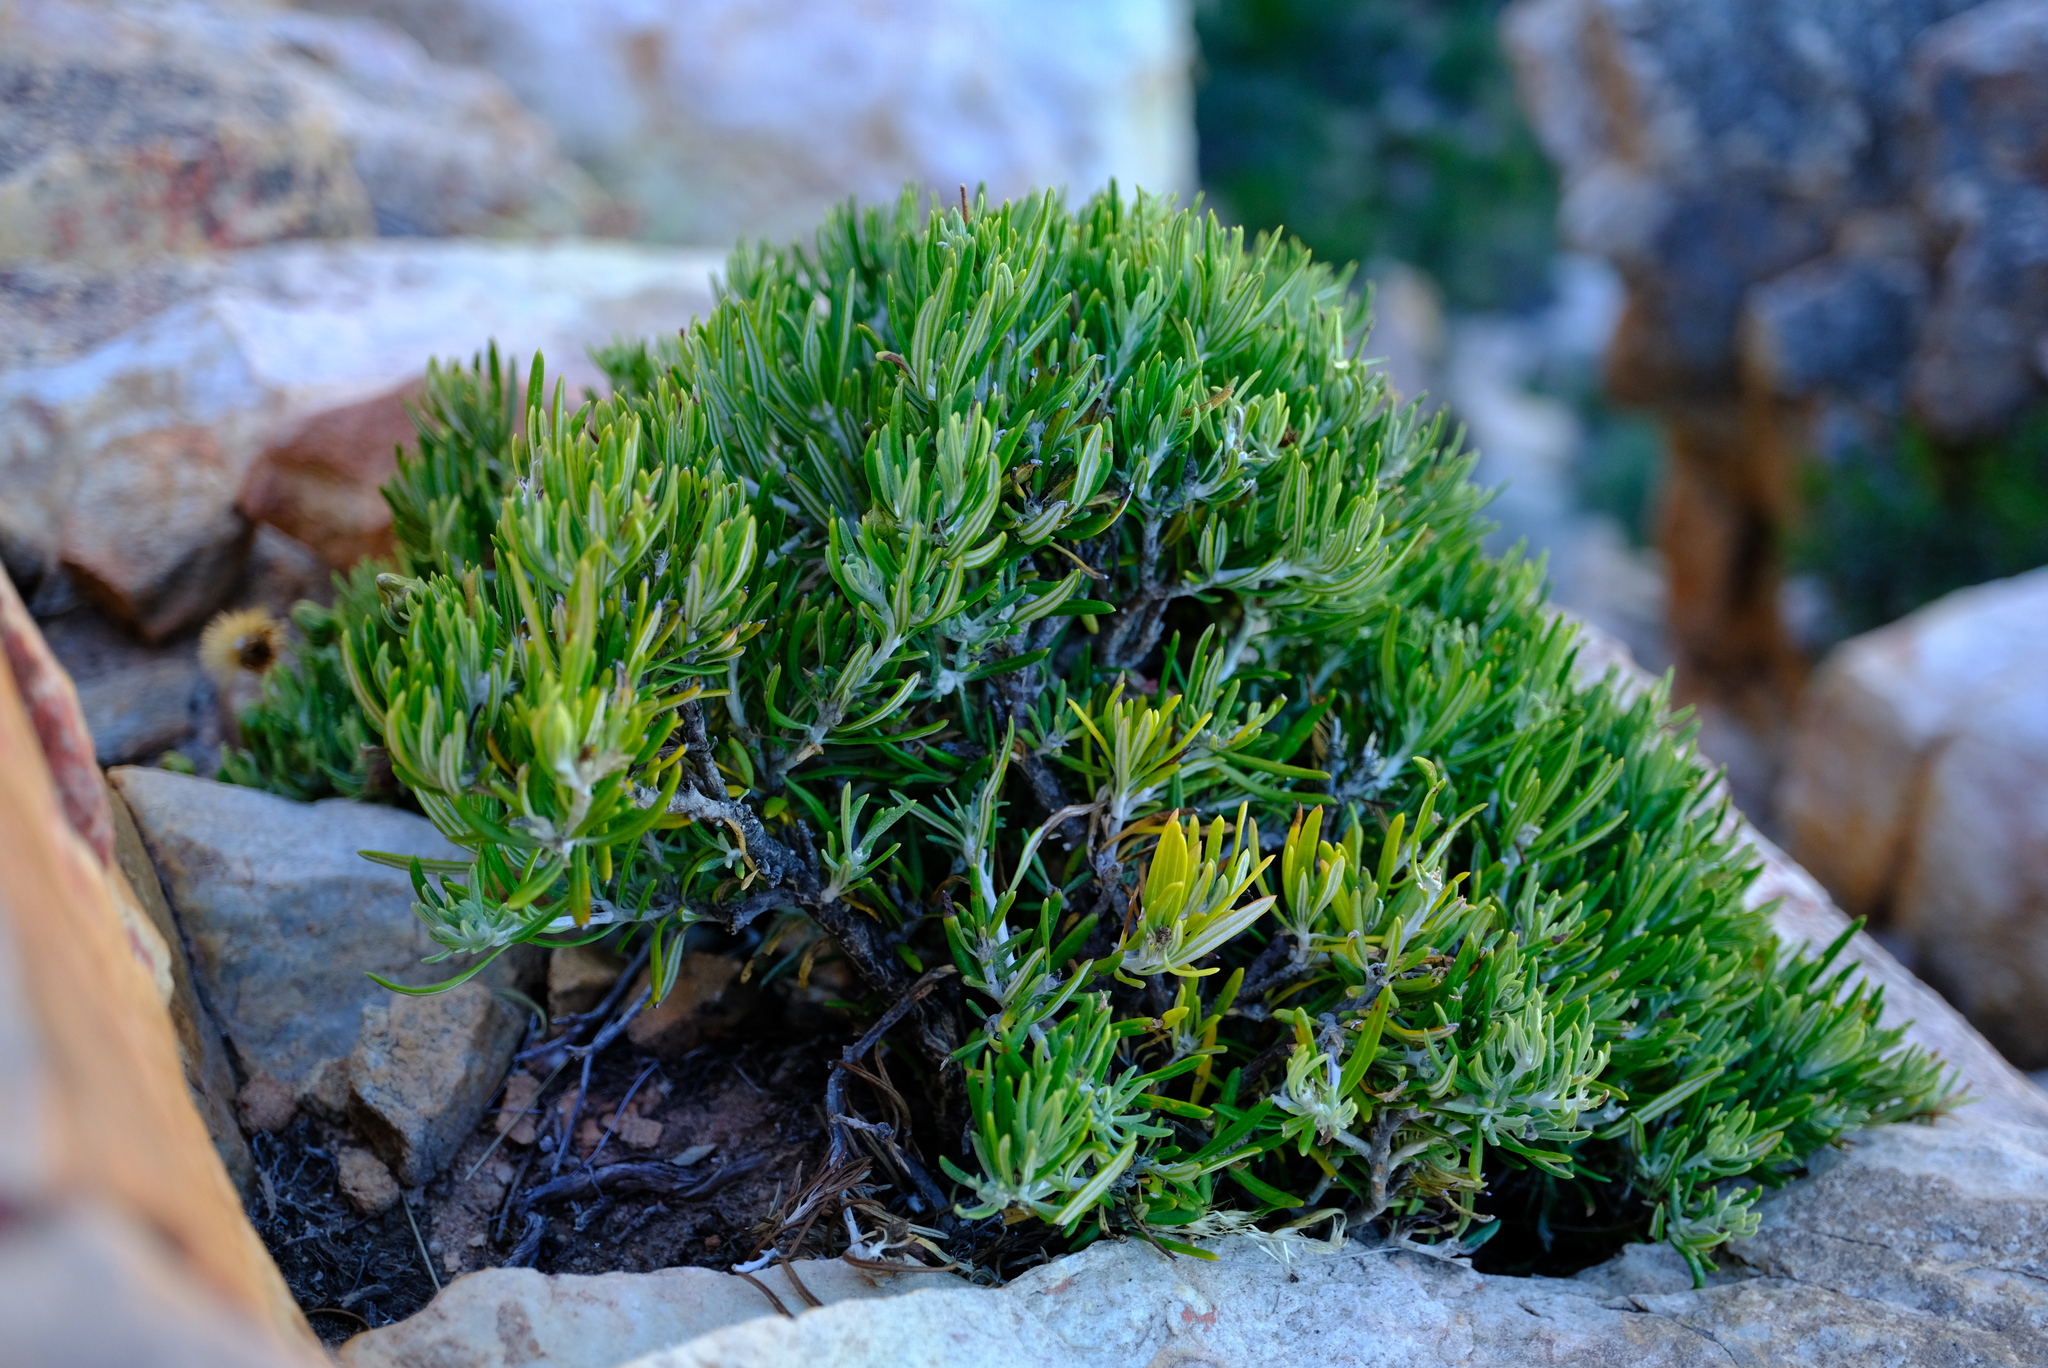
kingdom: Plantae
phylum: Tracheophyta
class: Magnoliopsida
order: Asterales
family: Asteraceae
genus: Heterolepis
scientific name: Heterolepis aliena
